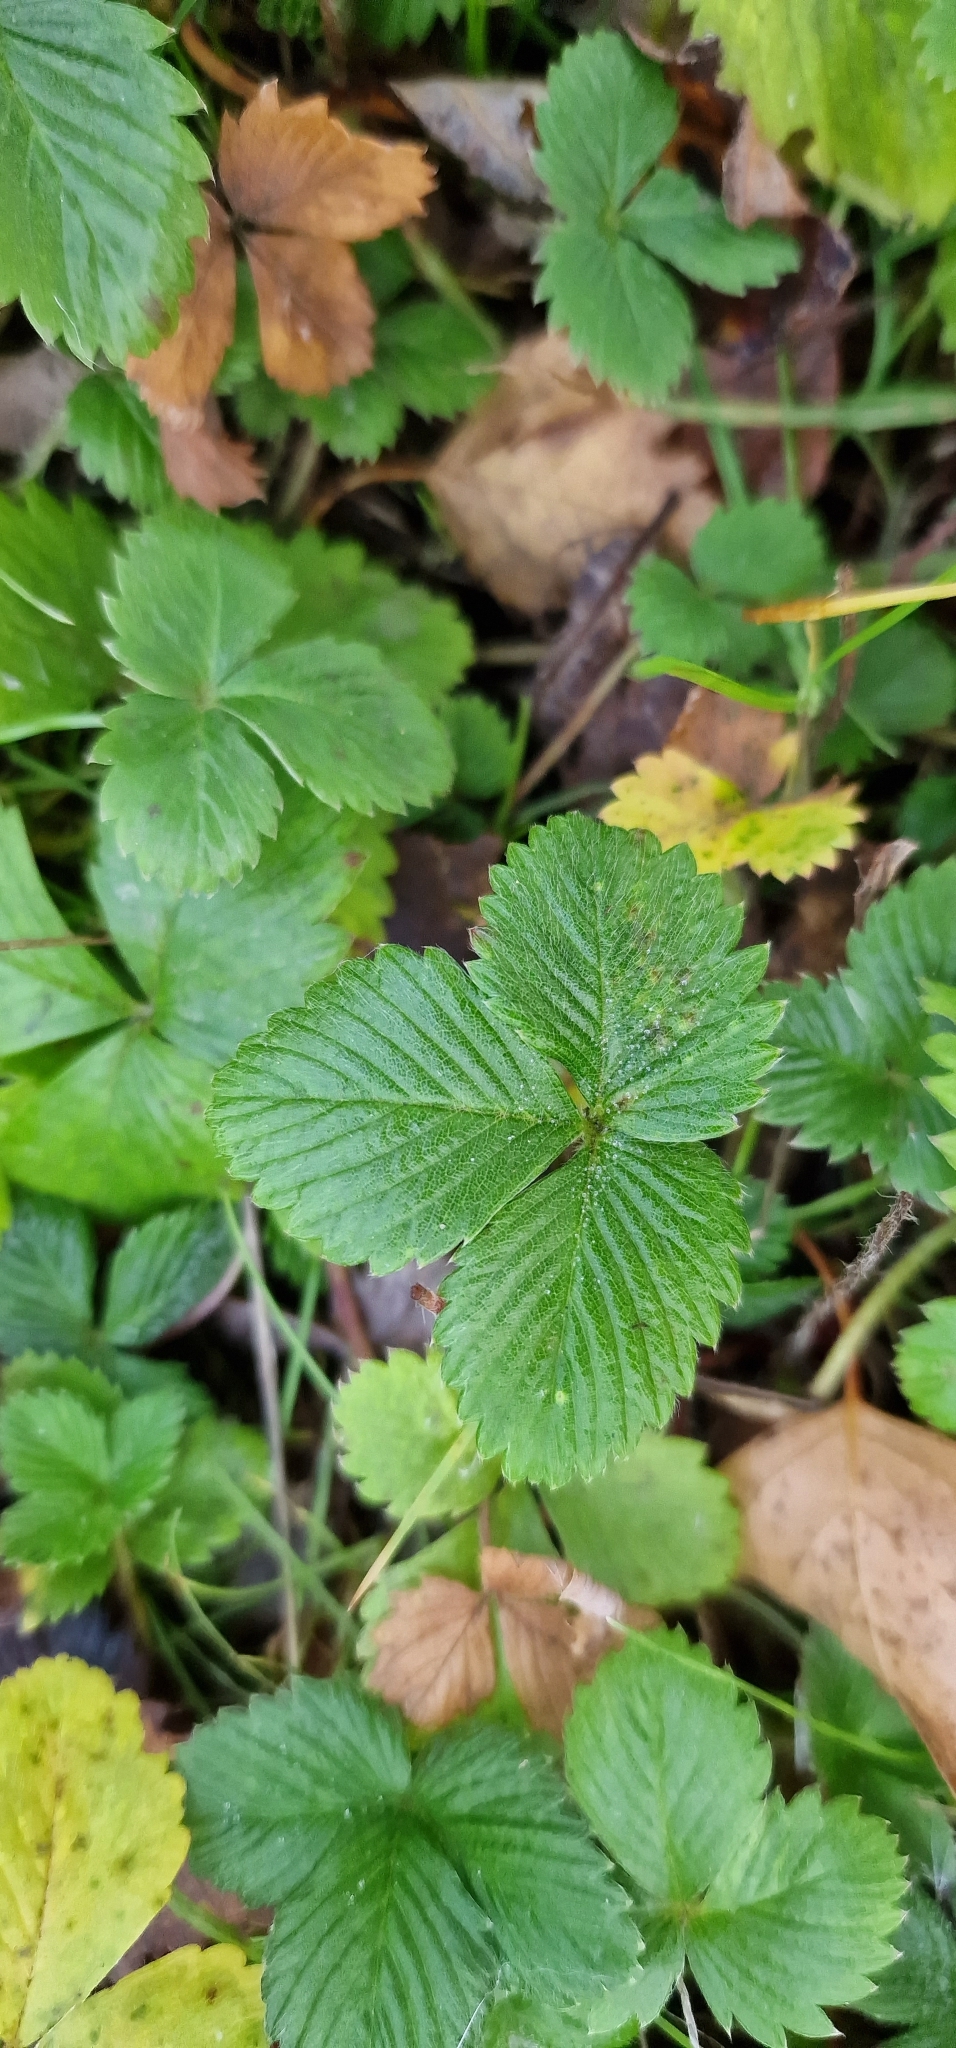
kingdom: Plantae
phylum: Tracheophyta
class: Magnoliopsida
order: Rosales
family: Rosaceae
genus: Potentilla
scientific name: Potentilla sterilis
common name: Barren strawberry
